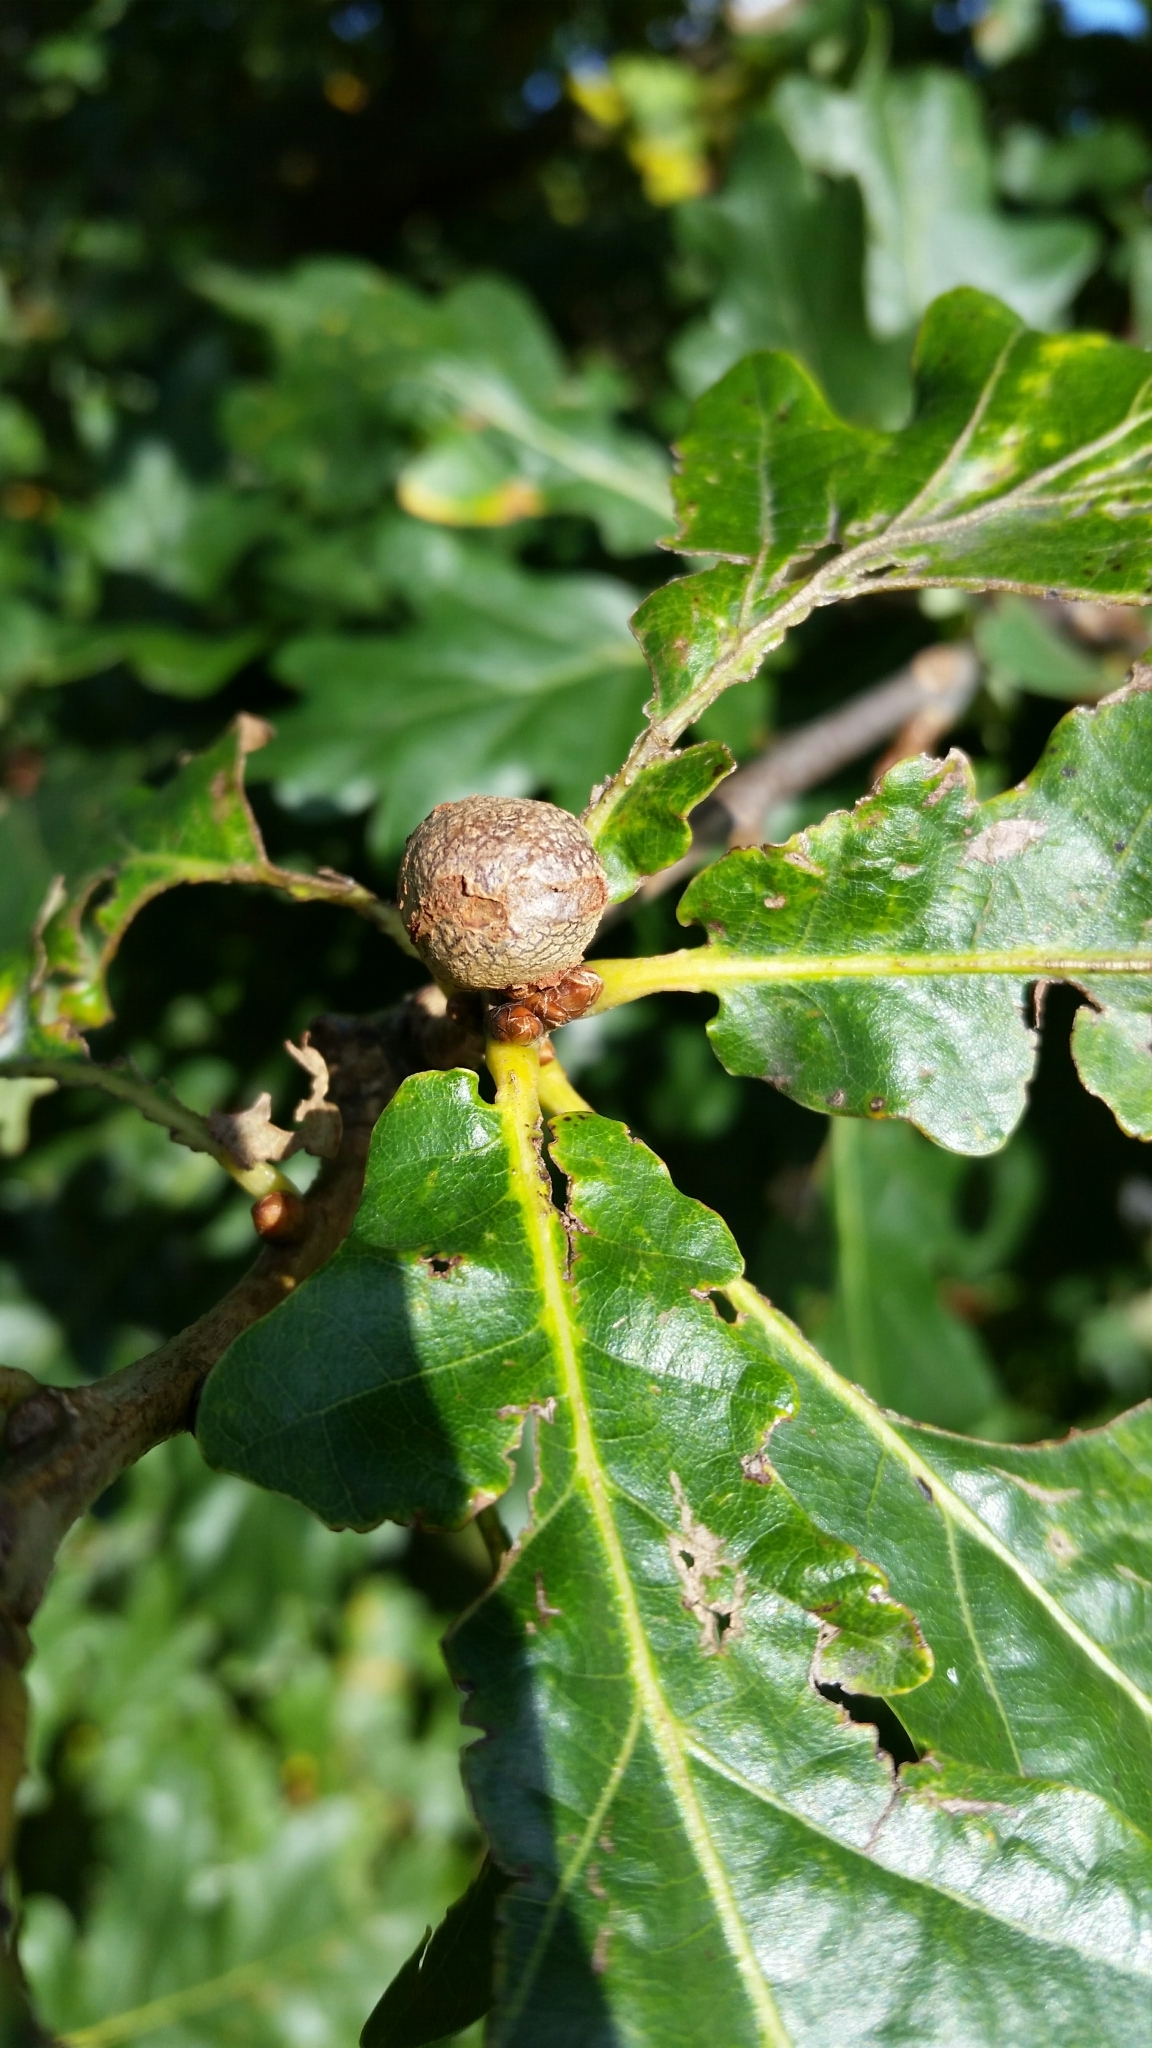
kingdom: Animalia
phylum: Arthropoda
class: Insecta
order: Hymenoptera
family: Cynipidae
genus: Andricus
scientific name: Andricus lignicolus
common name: Cola-nut gall
